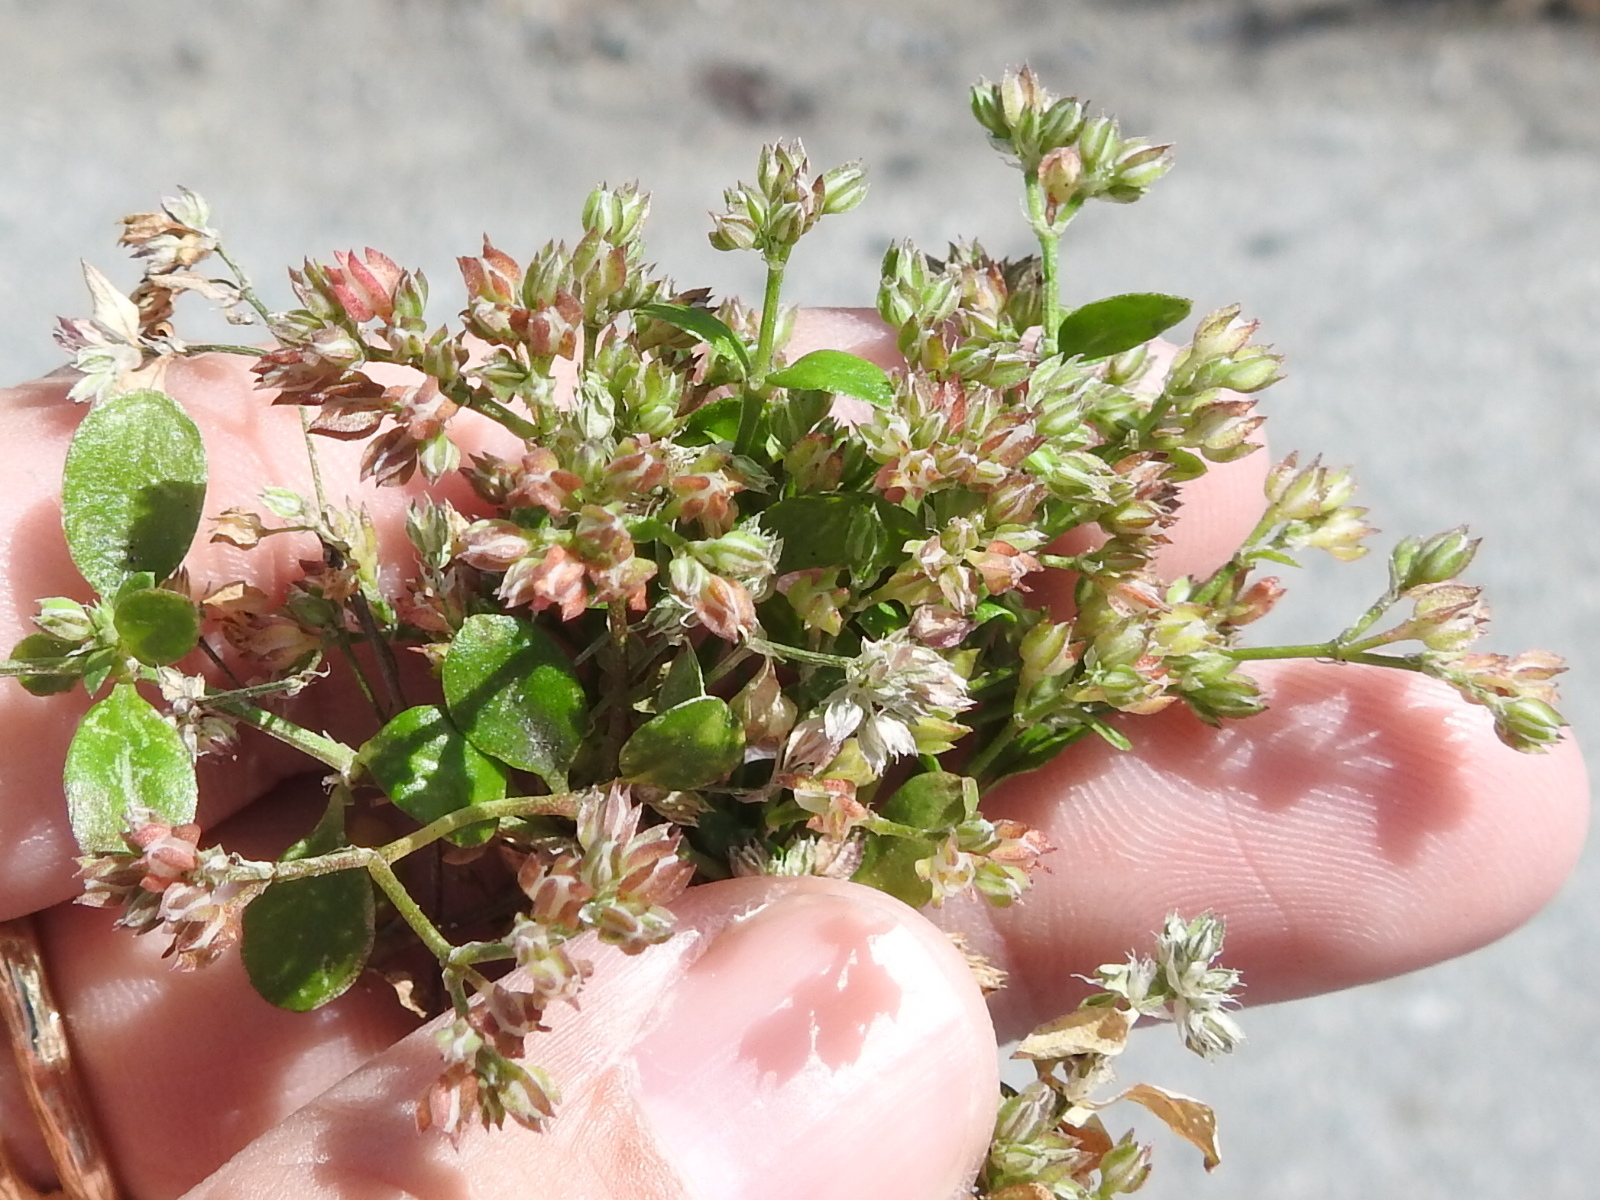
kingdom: Plantae
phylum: Tracheophyta
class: Magnoliopsida
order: Caryophyllales
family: Caryophyllaceae
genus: Polycarpon
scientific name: Polycarpon tetraphyllum
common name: Four-leaved all-seed
